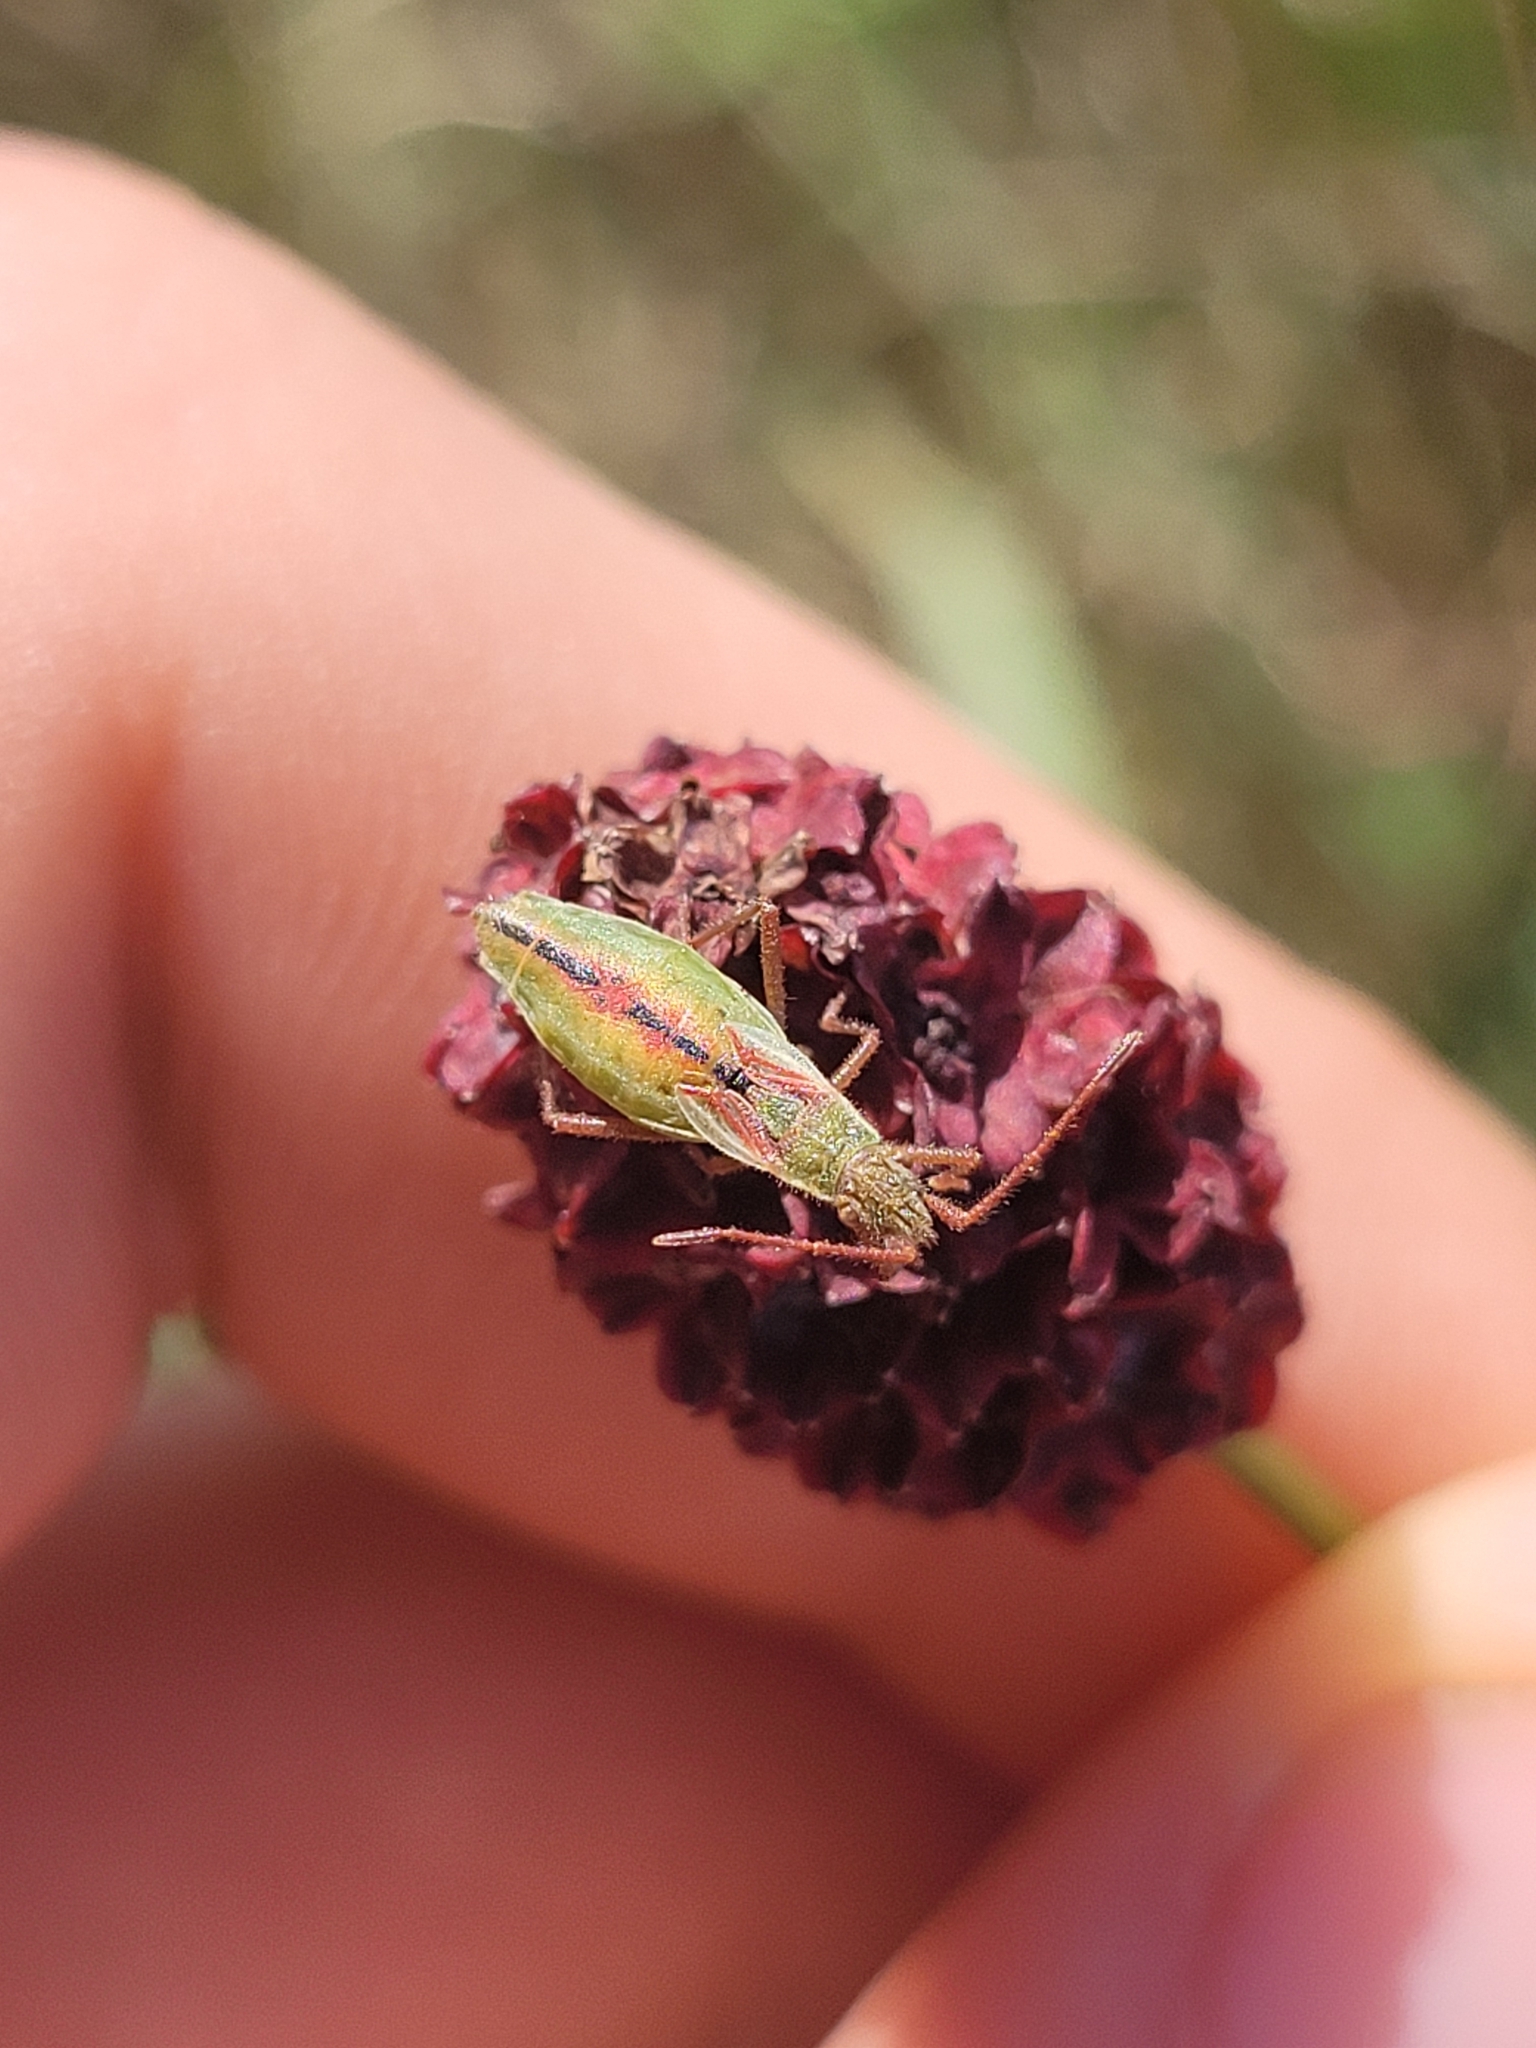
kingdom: Animalia
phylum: Arthropoda
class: Insecta
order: Hemiptera
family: Rhopalidae
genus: Myrmus
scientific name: Myrmus miriformis
